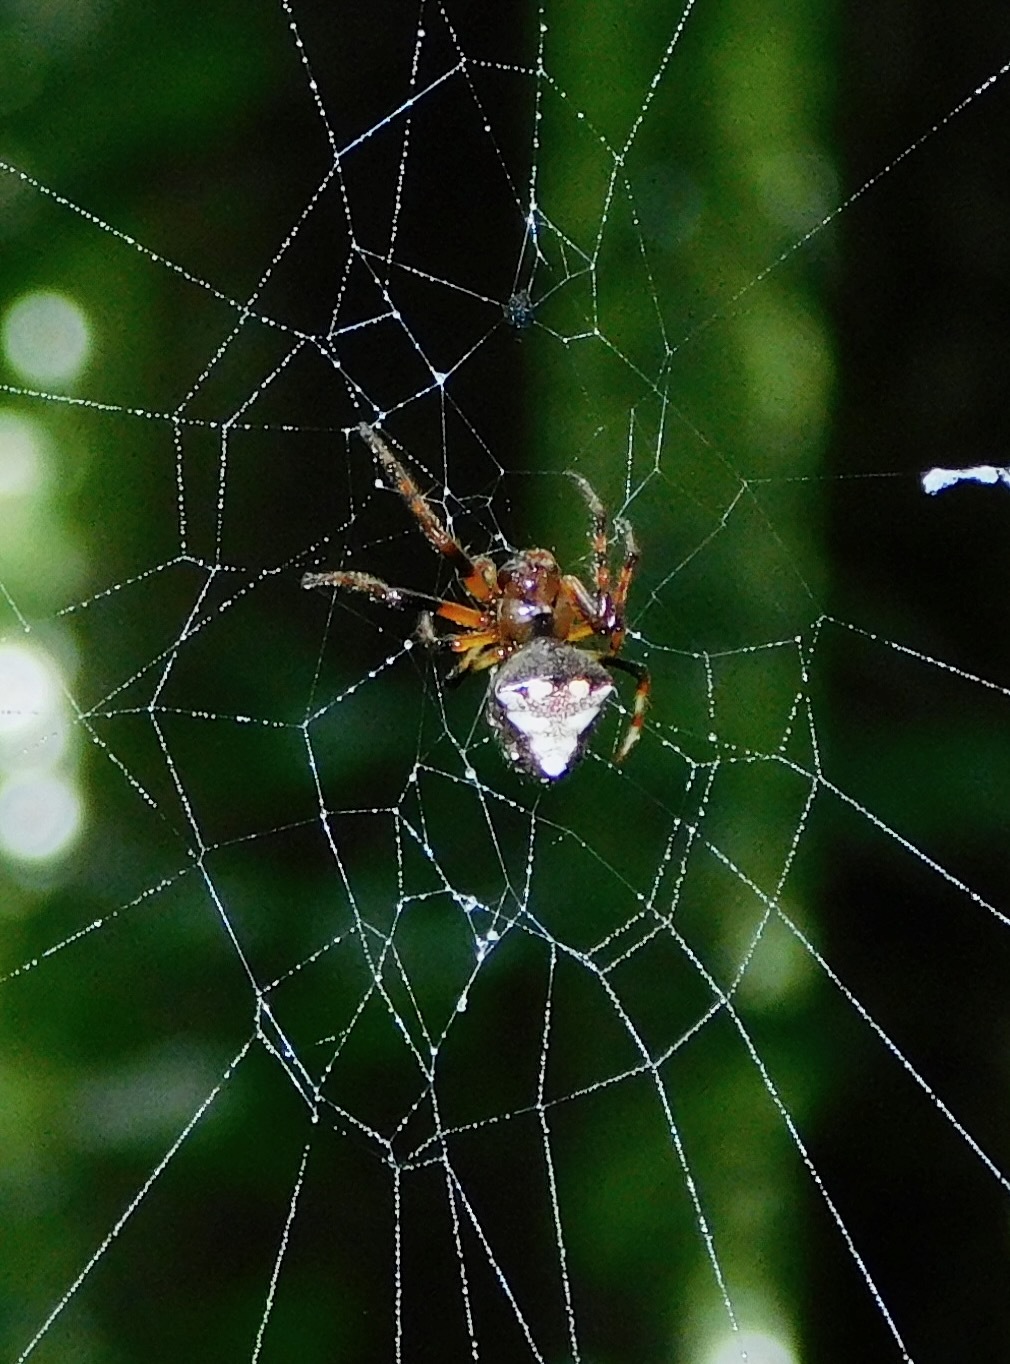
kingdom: Animalia
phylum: Arthropoda
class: Arachnida
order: Araneae
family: Araneidae
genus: Verrucosa
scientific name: Verrucosa arenata
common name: Orb weavers
